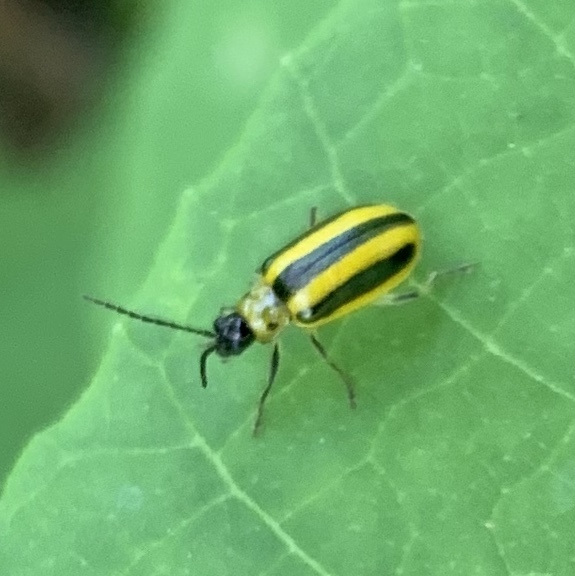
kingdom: Animalia
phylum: Arthropoda
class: Insecta
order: Coleoptera
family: Chrysomelidae
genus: Amphelasma
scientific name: Amphelasma cavum
